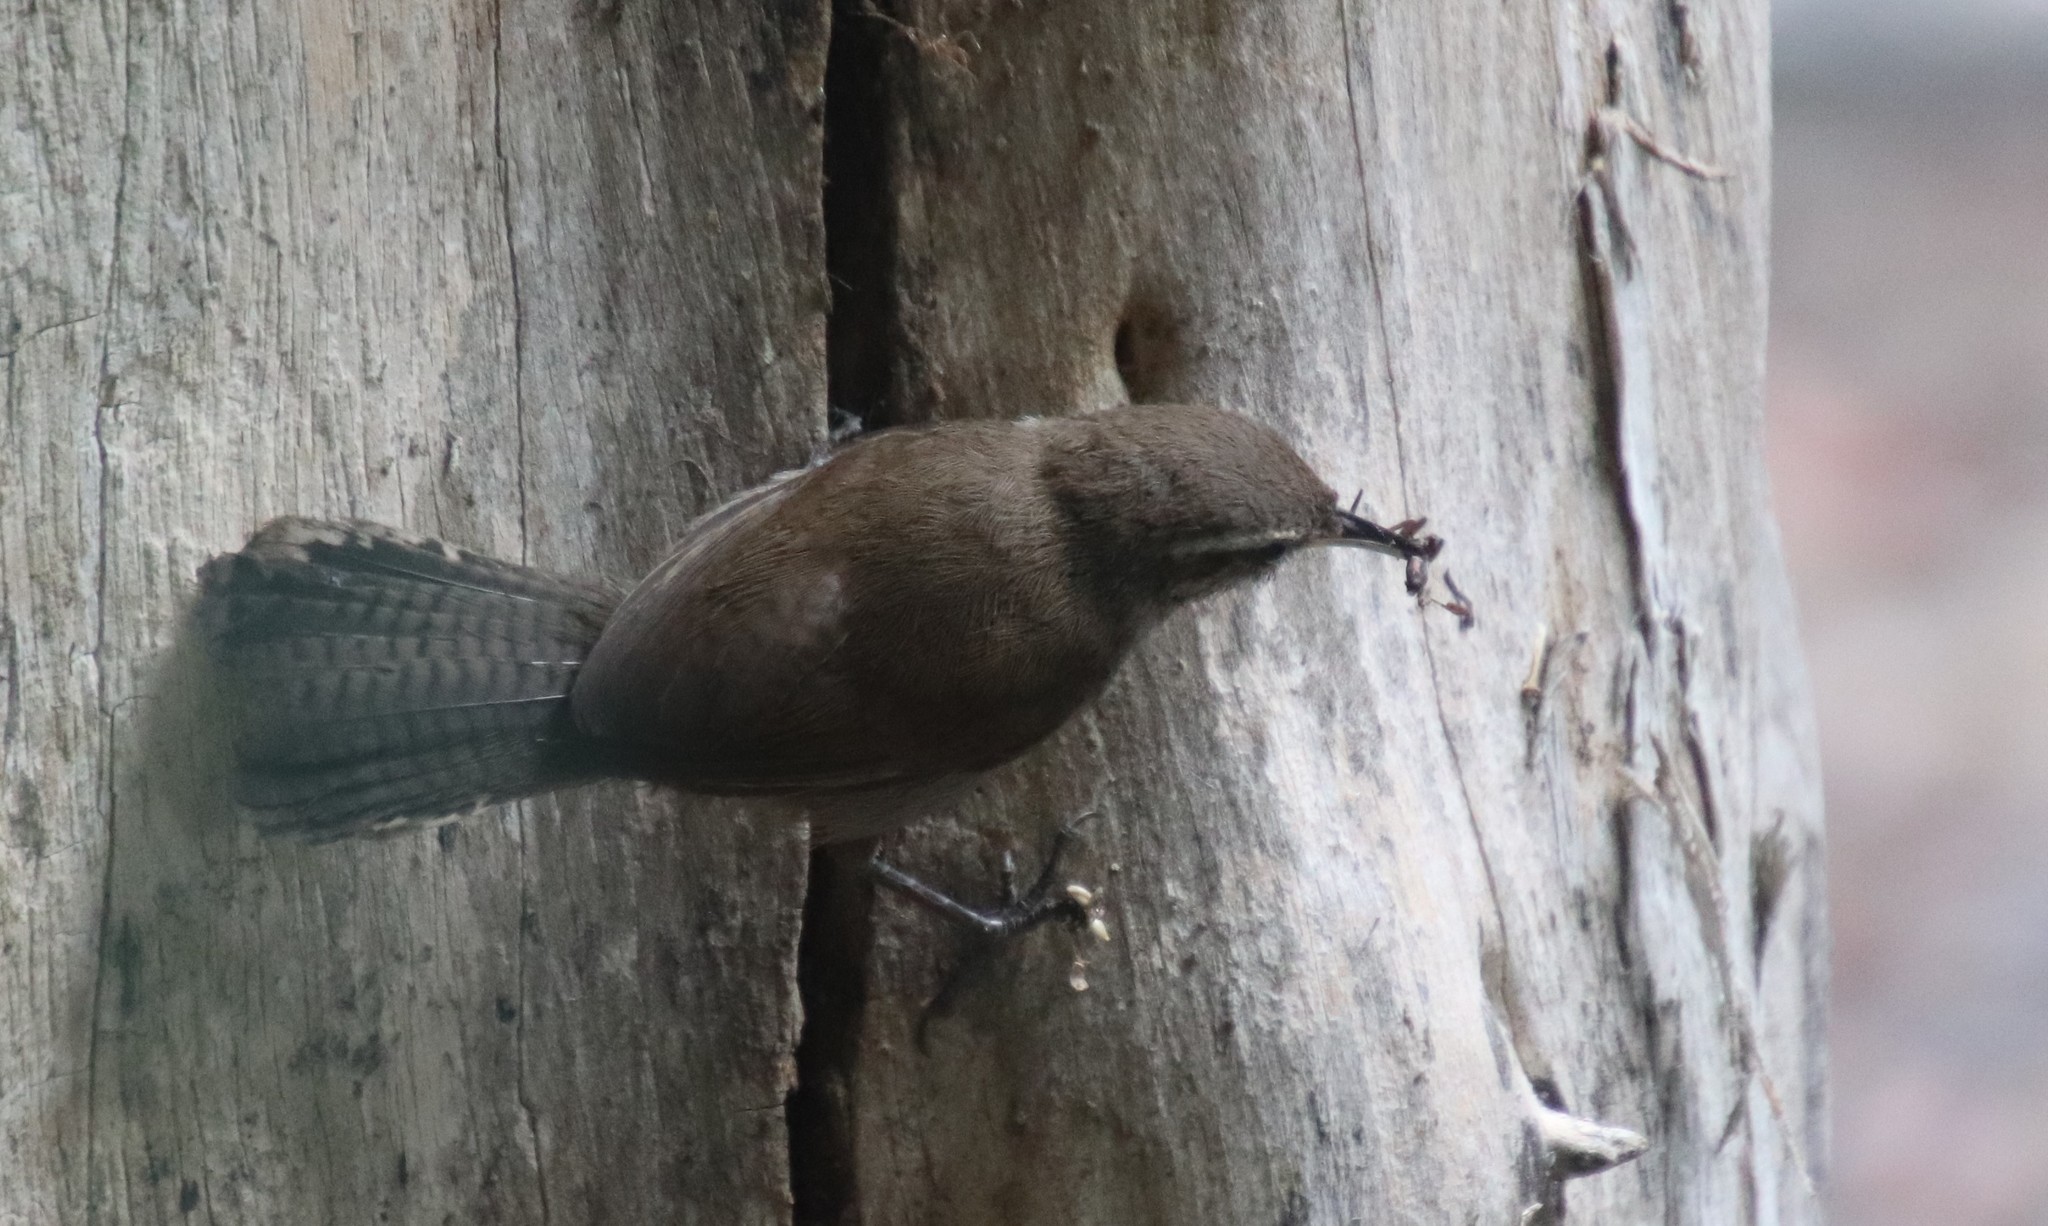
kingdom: Animalia
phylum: Chordata
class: Aves
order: Passeriformes
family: Troglodytidae
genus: Thryomanes
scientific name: Thryomanes bewickii
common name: Bewick's wren
